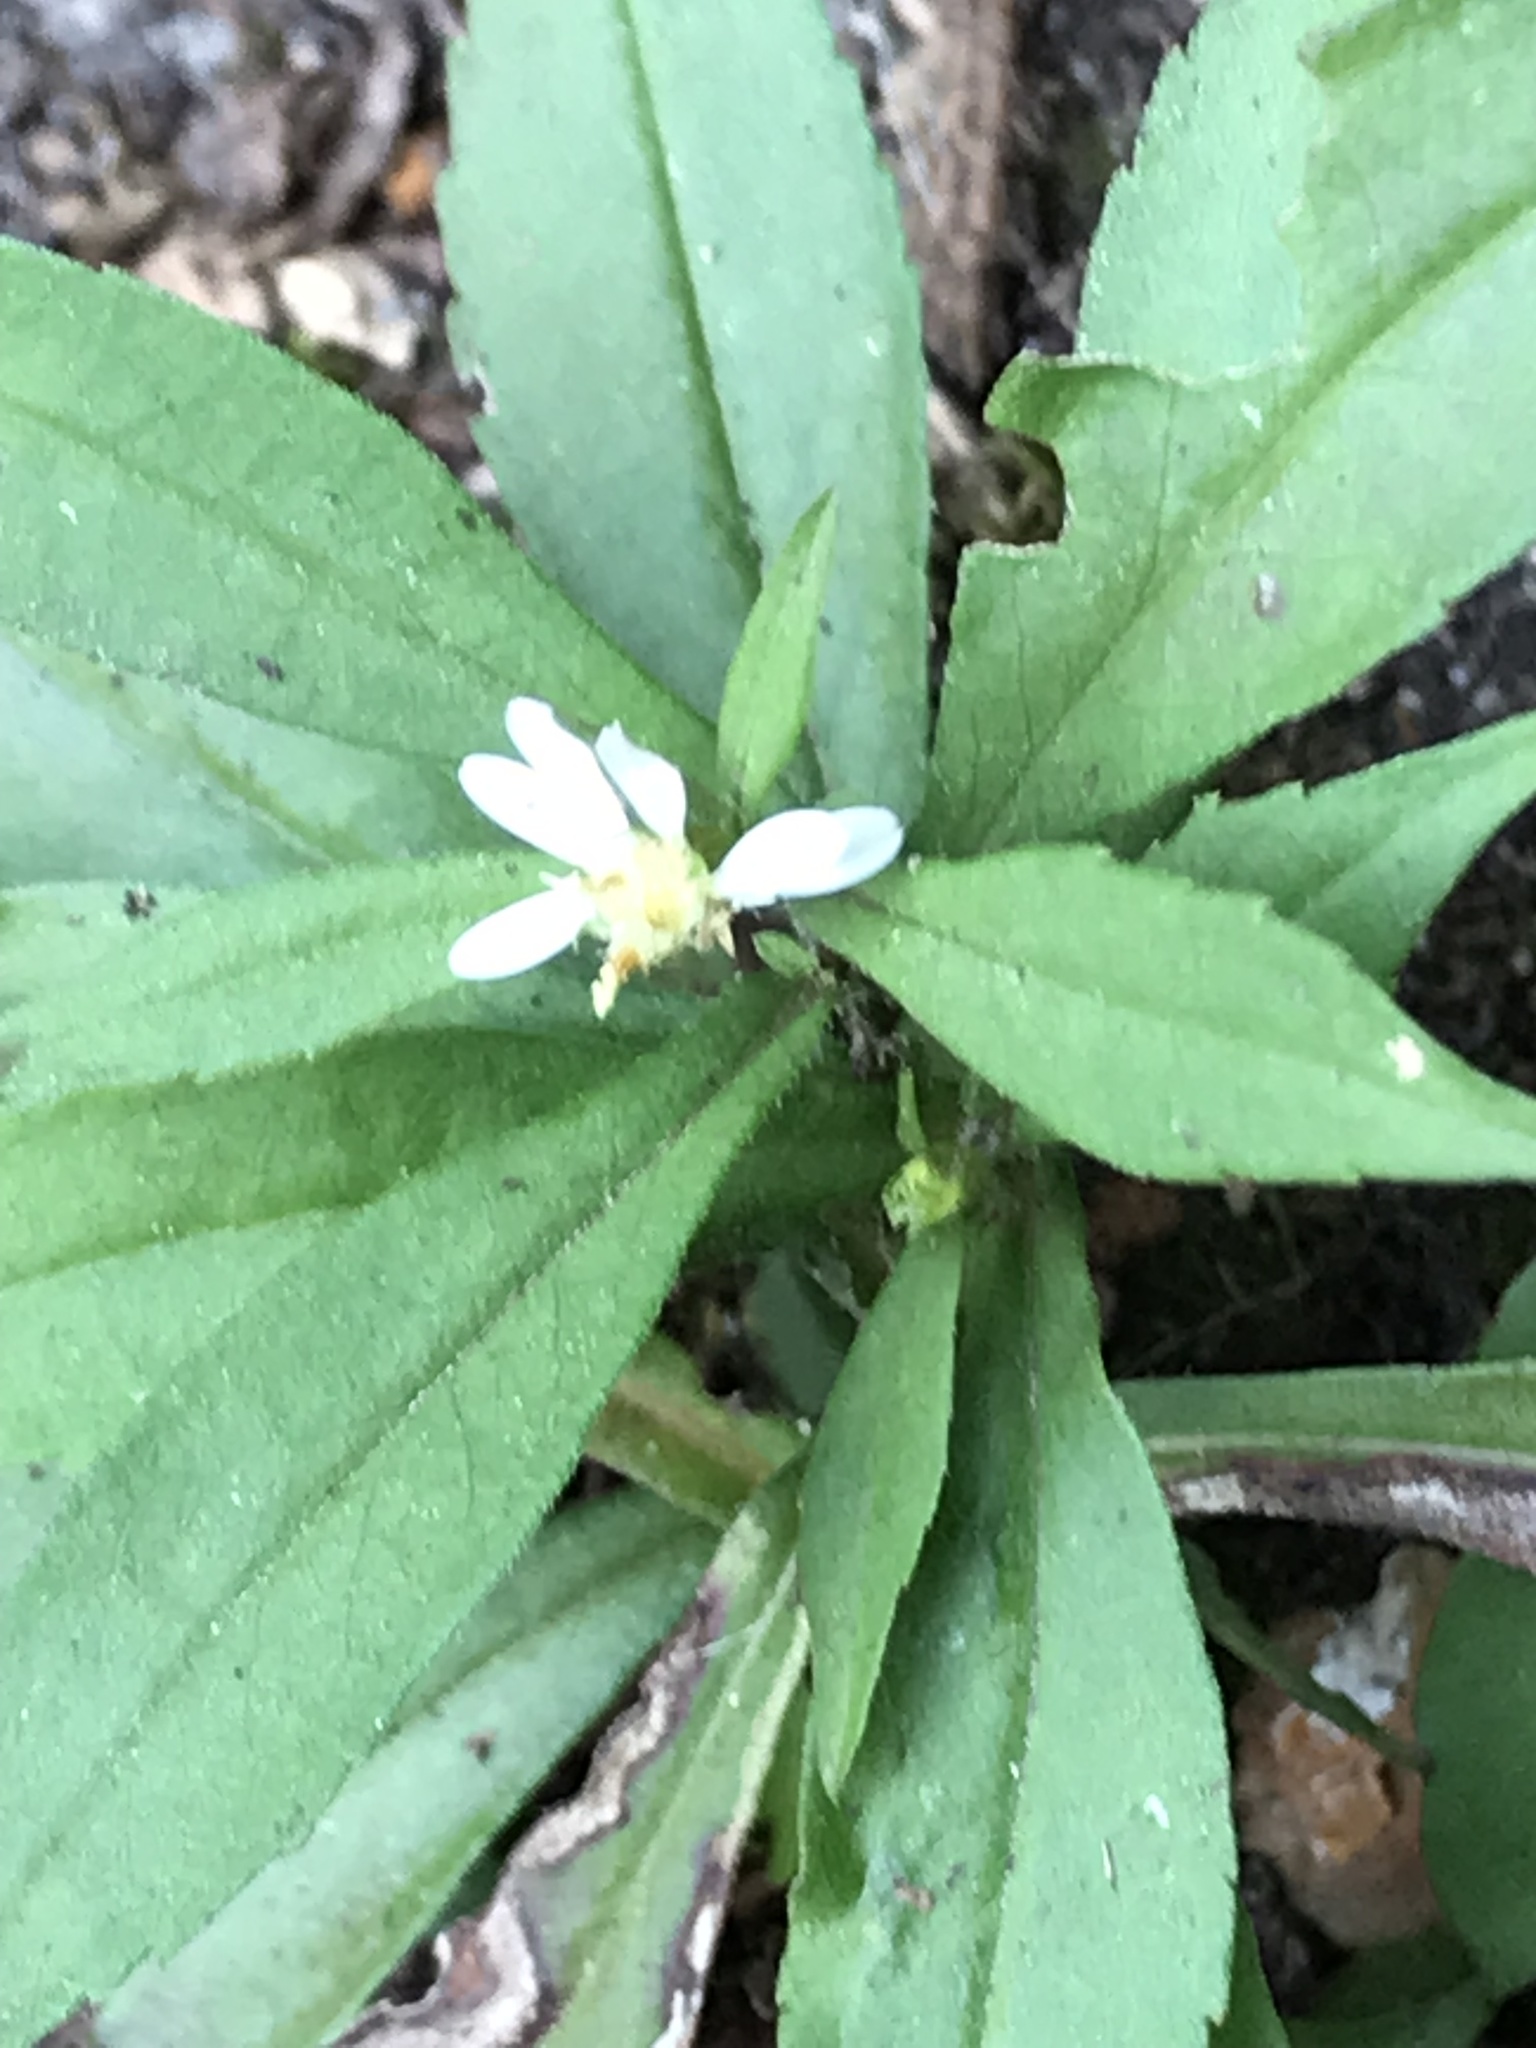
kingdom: Plantae
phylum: Tracheophyta
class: Magnoliopsida
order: Asterales
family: Asteraceae
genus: Symphyotrichum
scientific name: Symphyotrichum lateriflorum
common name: Calico aster
